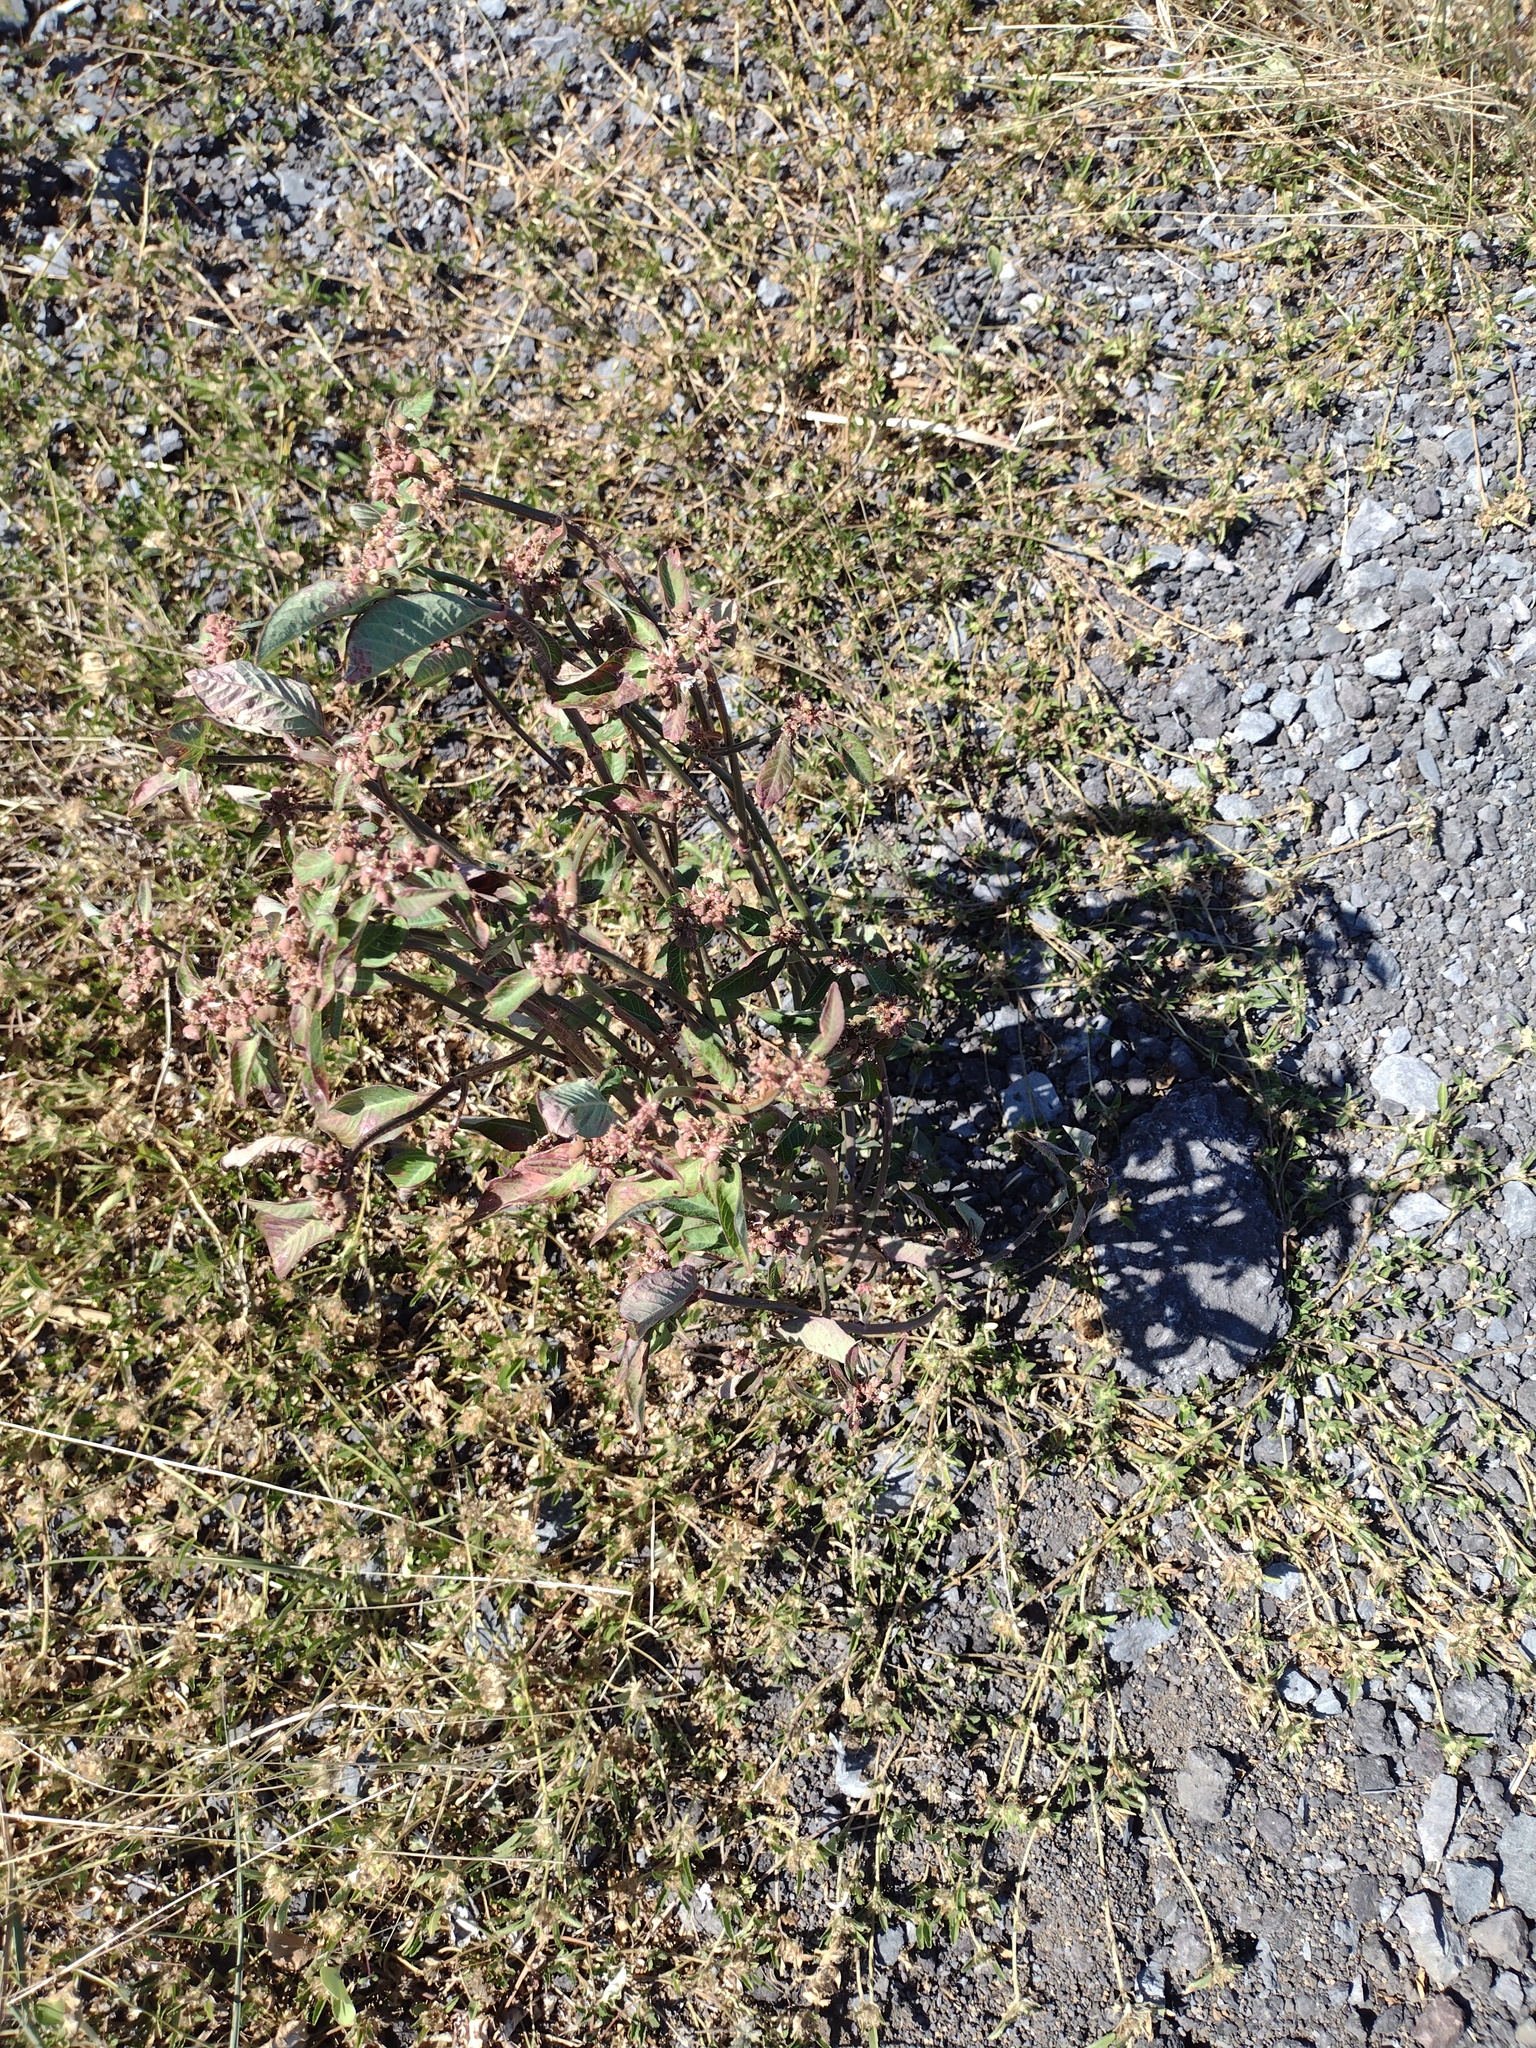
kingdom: Plantae
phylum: Tracheophyta
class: Magnoliopsida
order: Malpighiales
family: Euphorbiaceae
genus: Euphorbia
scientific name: Euphorbia heterophylla
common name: Mexican fireplant
